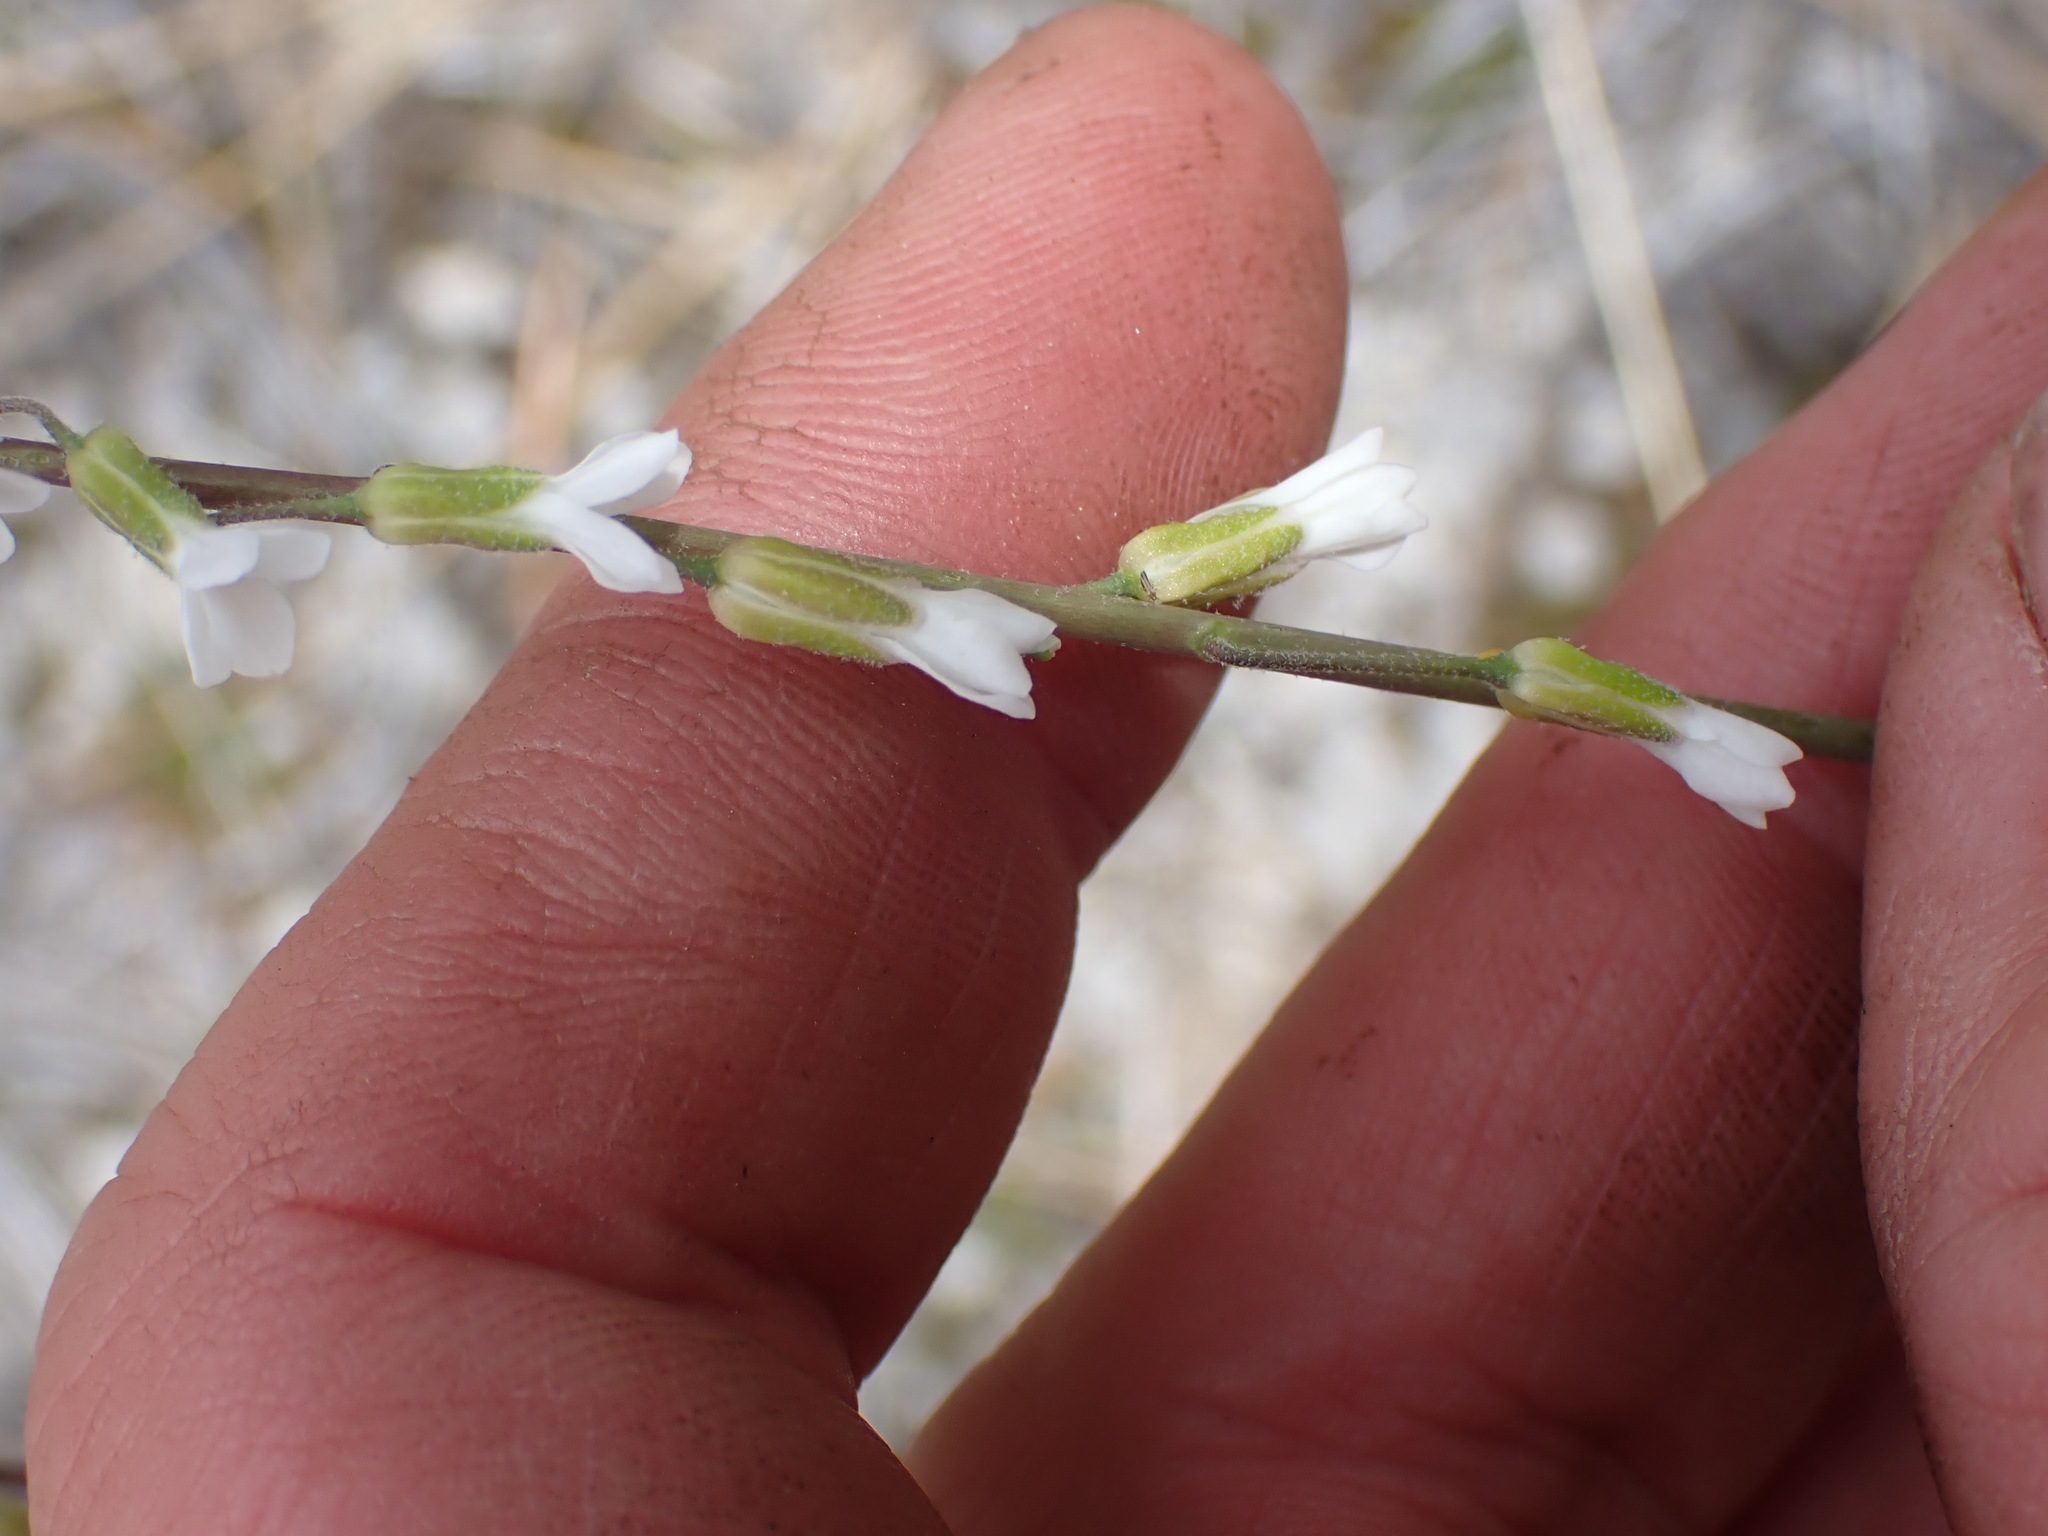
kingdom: Plantae
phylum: Tracheophyta
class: Magnoliopsida
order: Brassicales
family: Brassicaceae
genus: Boechera
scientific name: Boechera retrofracta
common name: Dangling suncress
